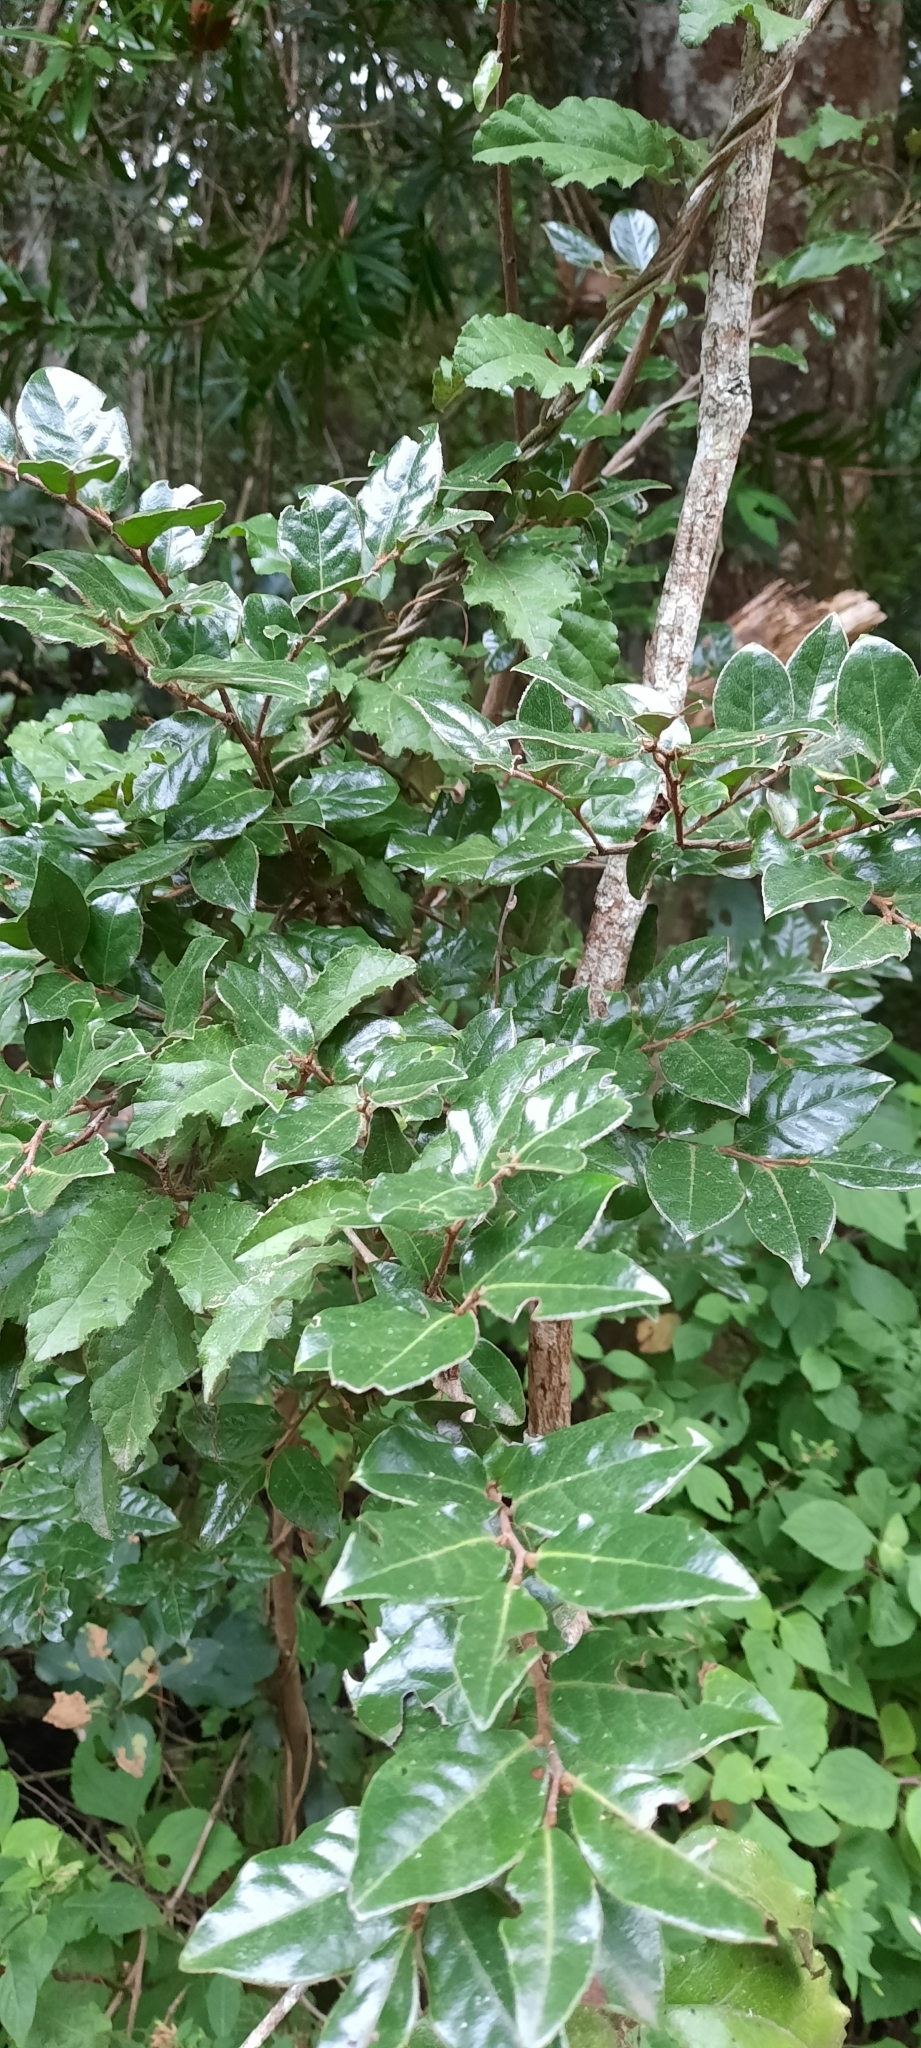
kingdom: Plantae
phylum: Tracheophyta
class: Magnoliopsida
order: Ericales
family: Ebenaceae
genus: Diospyros
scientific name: Diospyros whyteana
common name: Bladder-nut
